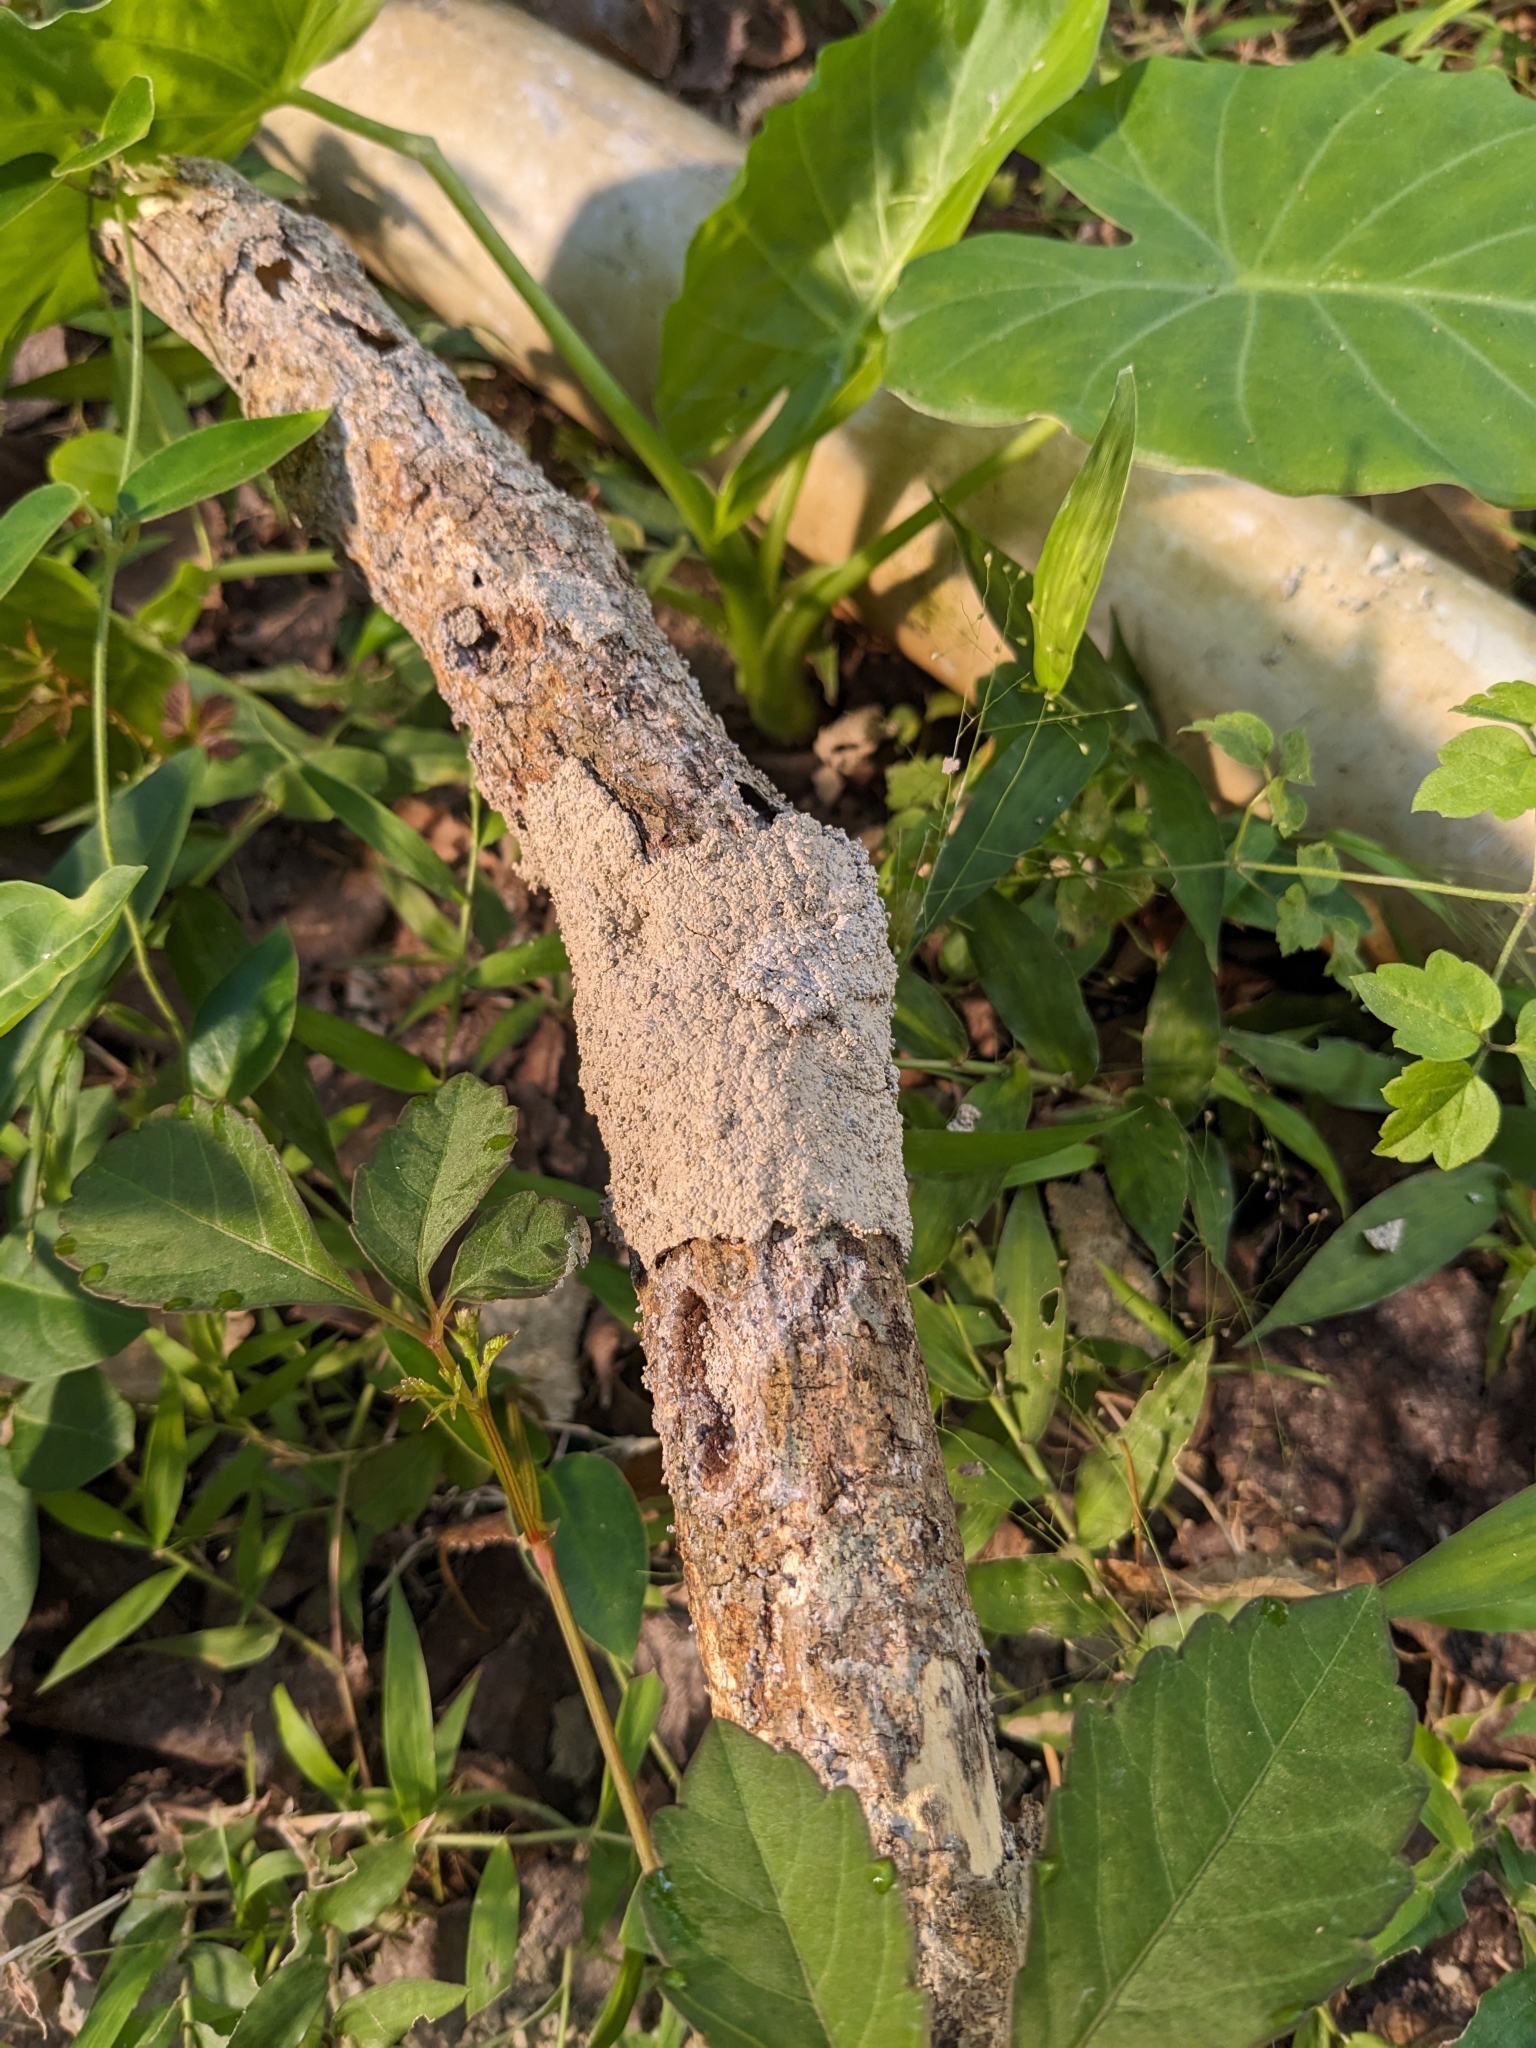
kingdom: Animalia
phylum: Arthropoda
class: Insecta
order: Blattodea
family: Termitidae
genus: Odontotermes
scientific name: Odontotermes formosanus
